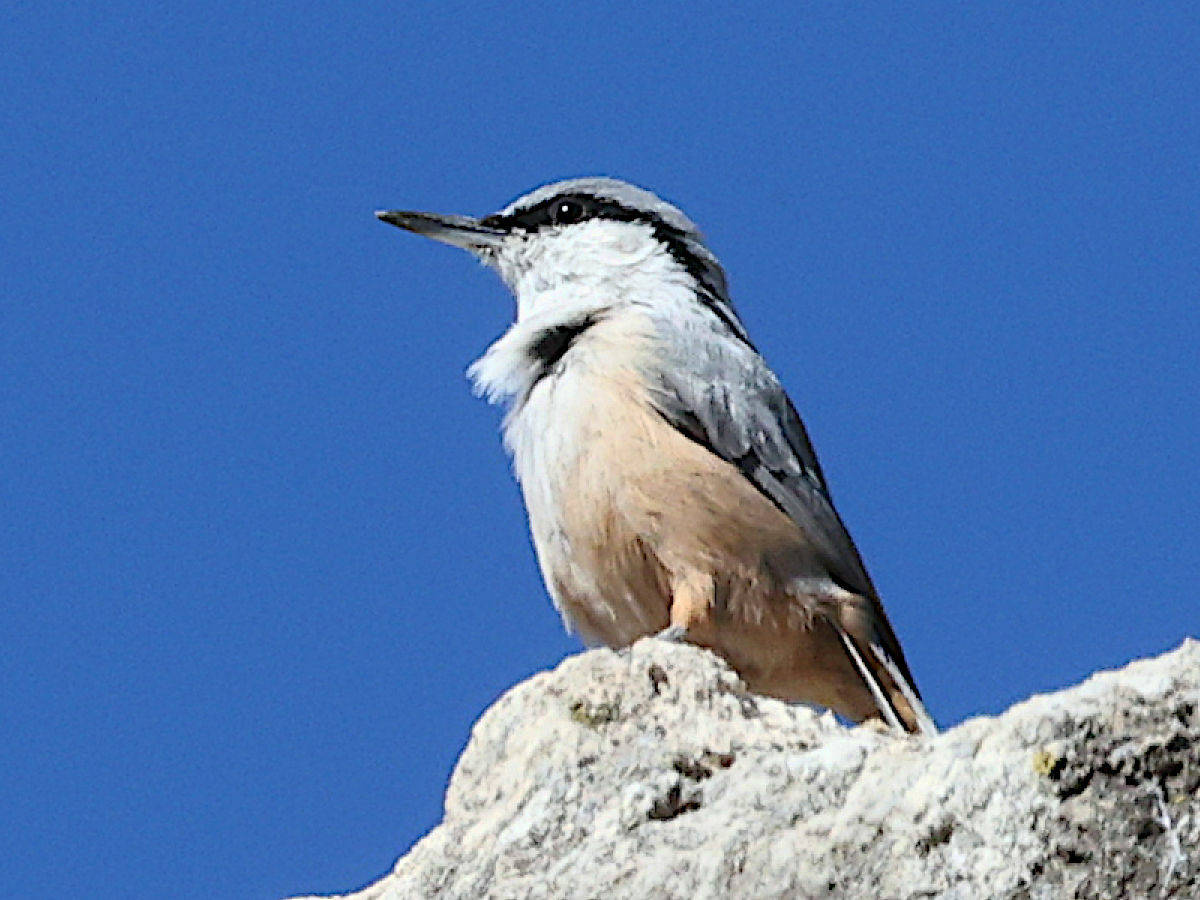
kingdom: Animalia
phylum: Chordata
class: Aves
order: Passeriformes
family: Sittidae
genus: Sitta
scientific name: Sitta neumayer
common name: Western rock nuthatch
